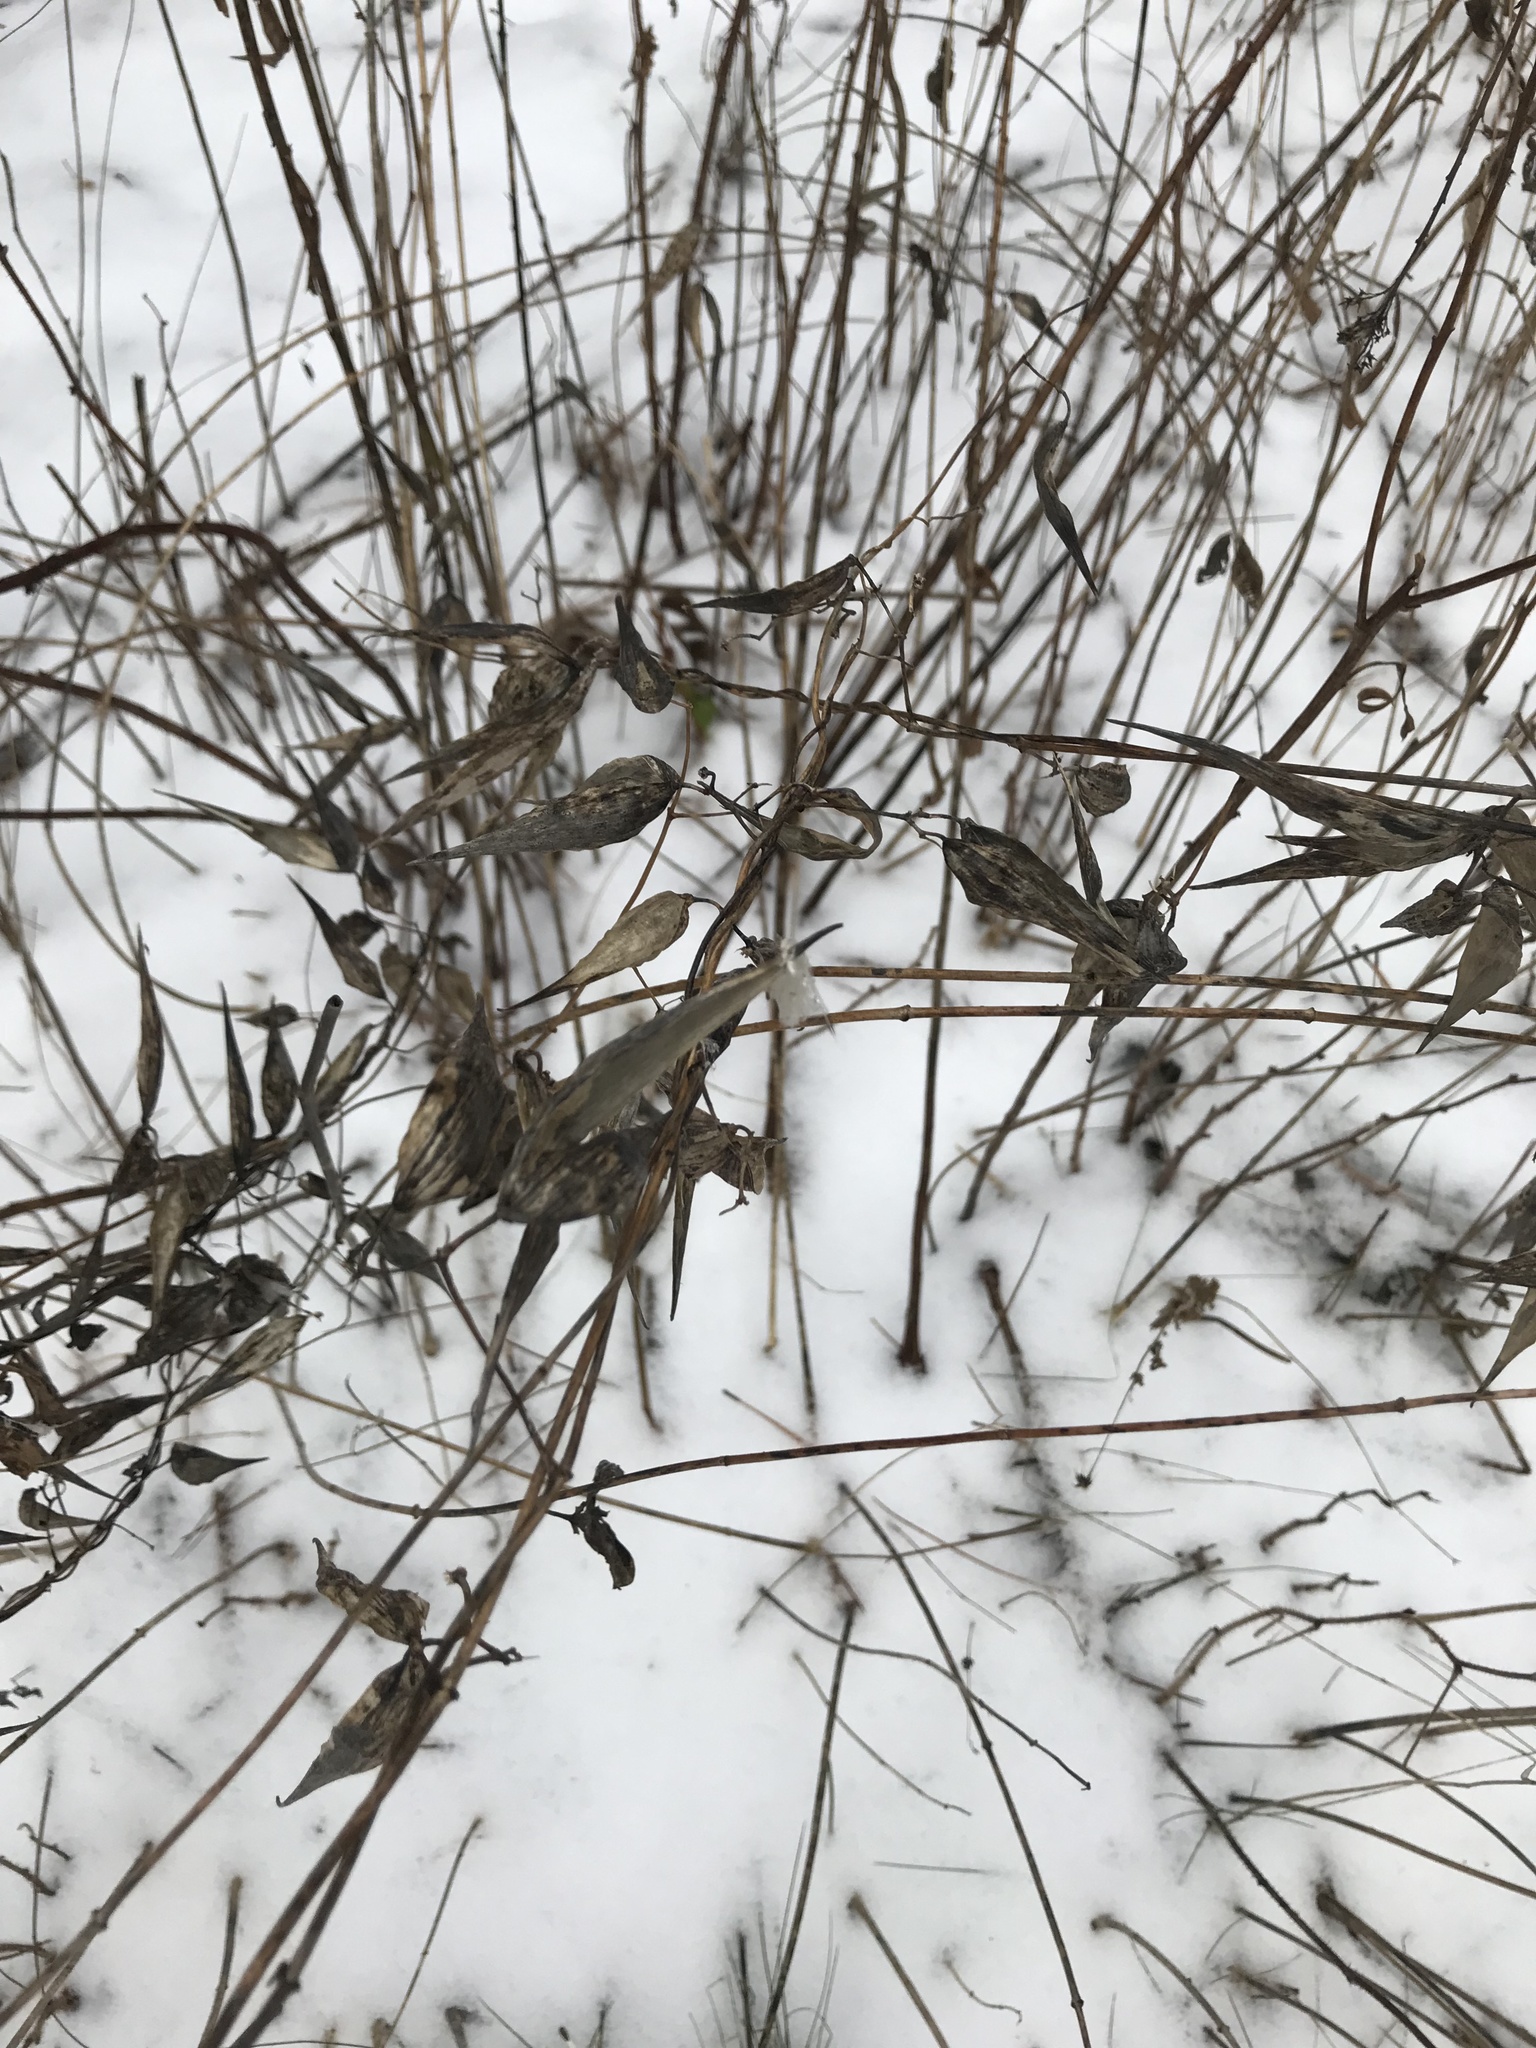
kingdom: Plantae
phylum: Tracheophyta
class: Magnoliopsida
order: Gentianales
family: Apocynaceae
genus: Vincetoxicum
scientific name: Vincetoxicum rossicum
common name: Dog-strangling vine
